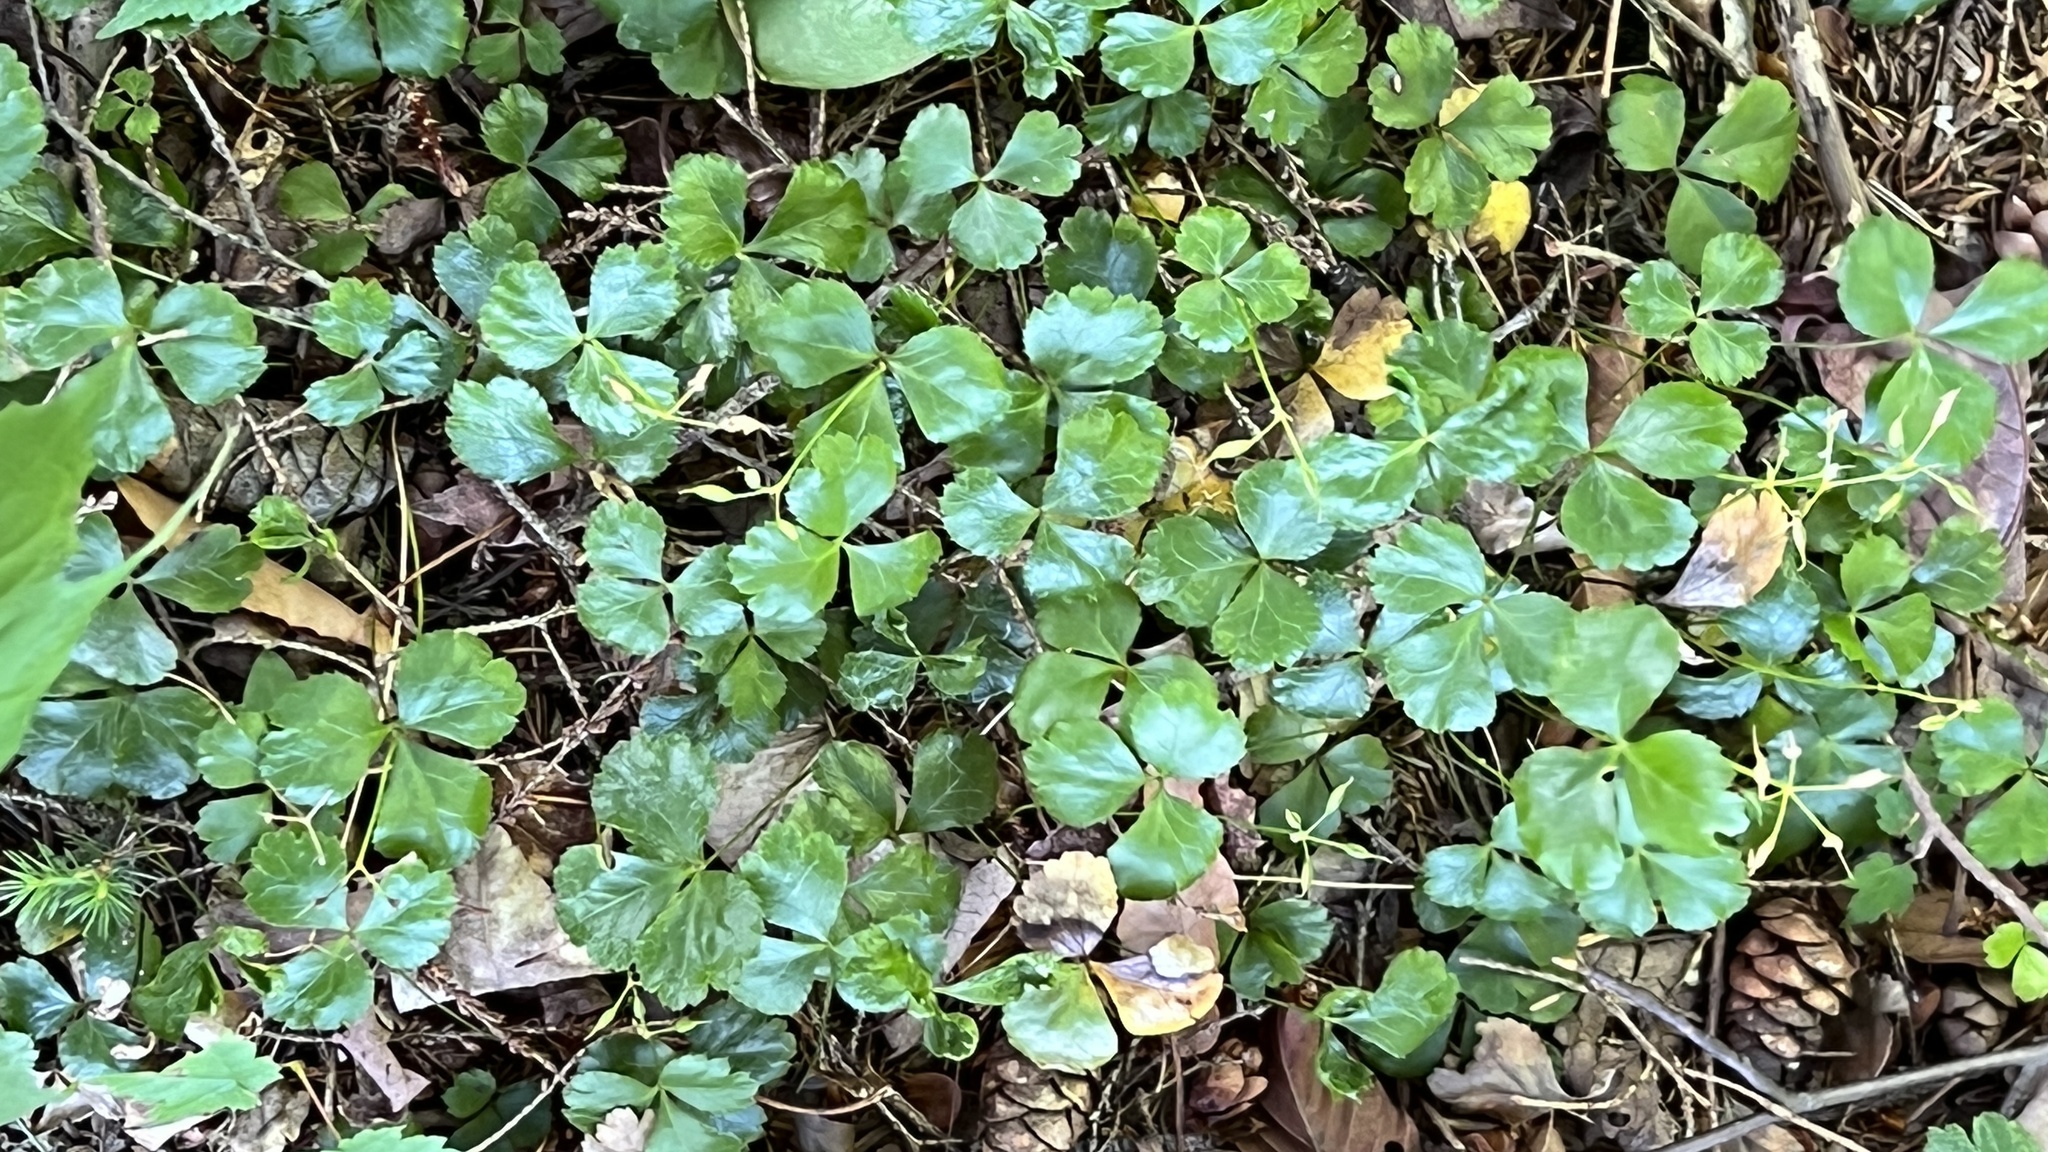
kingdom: Plantae
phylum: Tracheophyta
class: Magnoliopsida
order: Ranunculales
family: Ranunculaceae
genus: Coptis
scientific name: Coptis trifolia
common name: Canker-root
